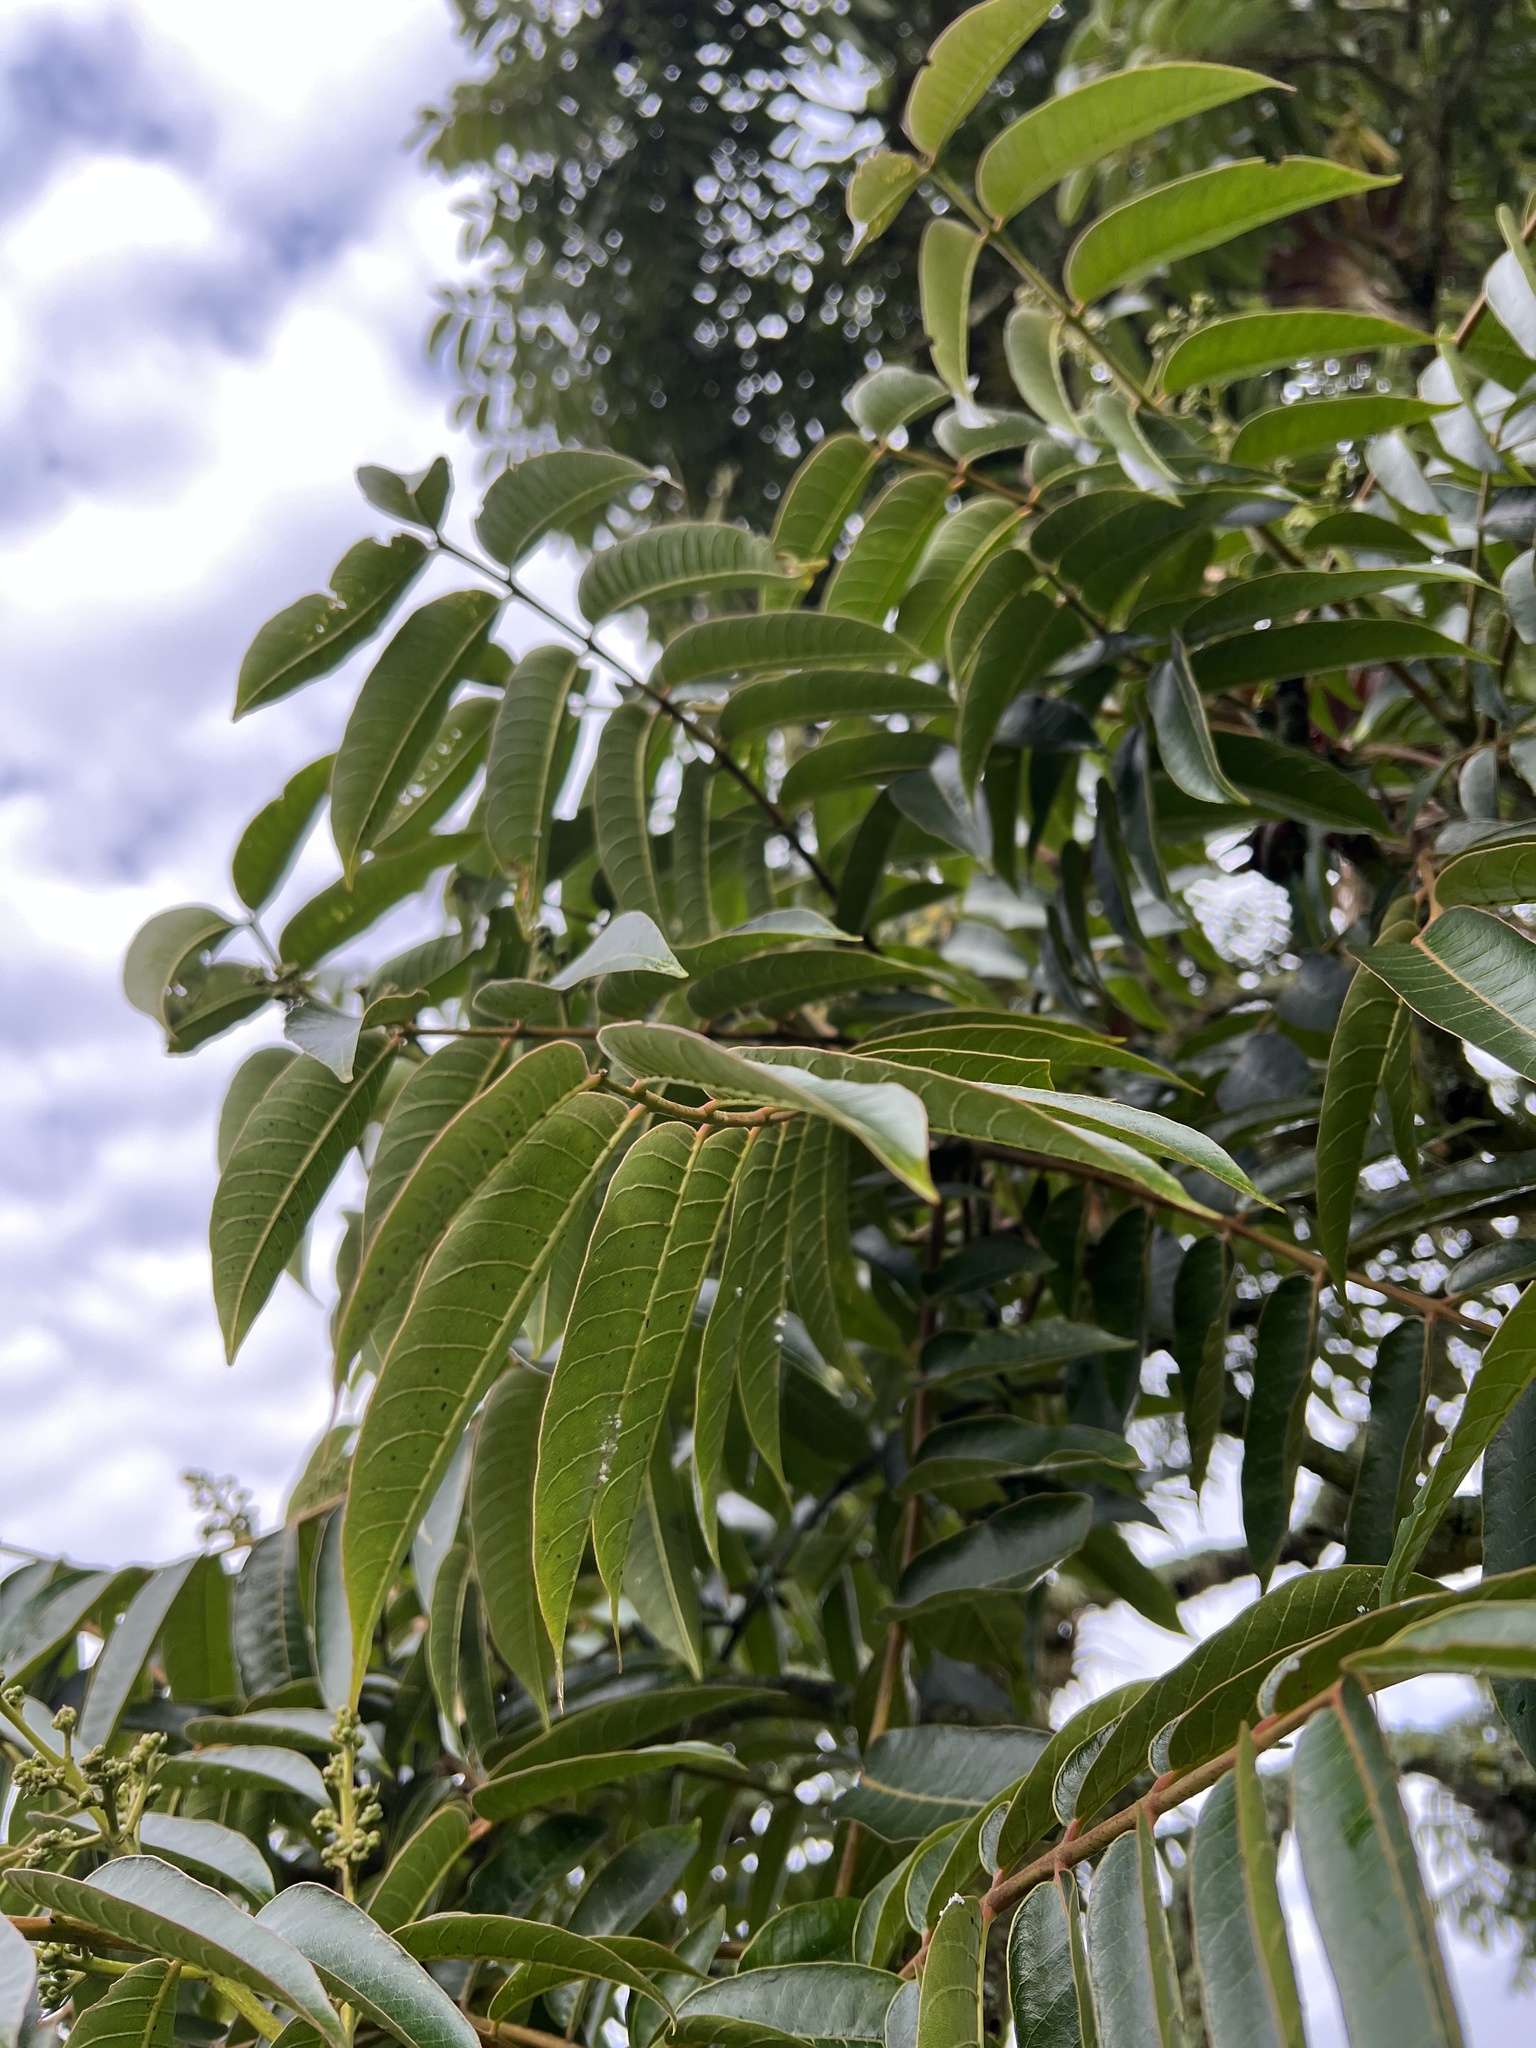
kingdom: Plantae
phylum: Tracheophyta
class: Magnoliopsida
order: Sapindales
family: Meliaceae
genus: Cedrela
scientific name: Cedrela montana
